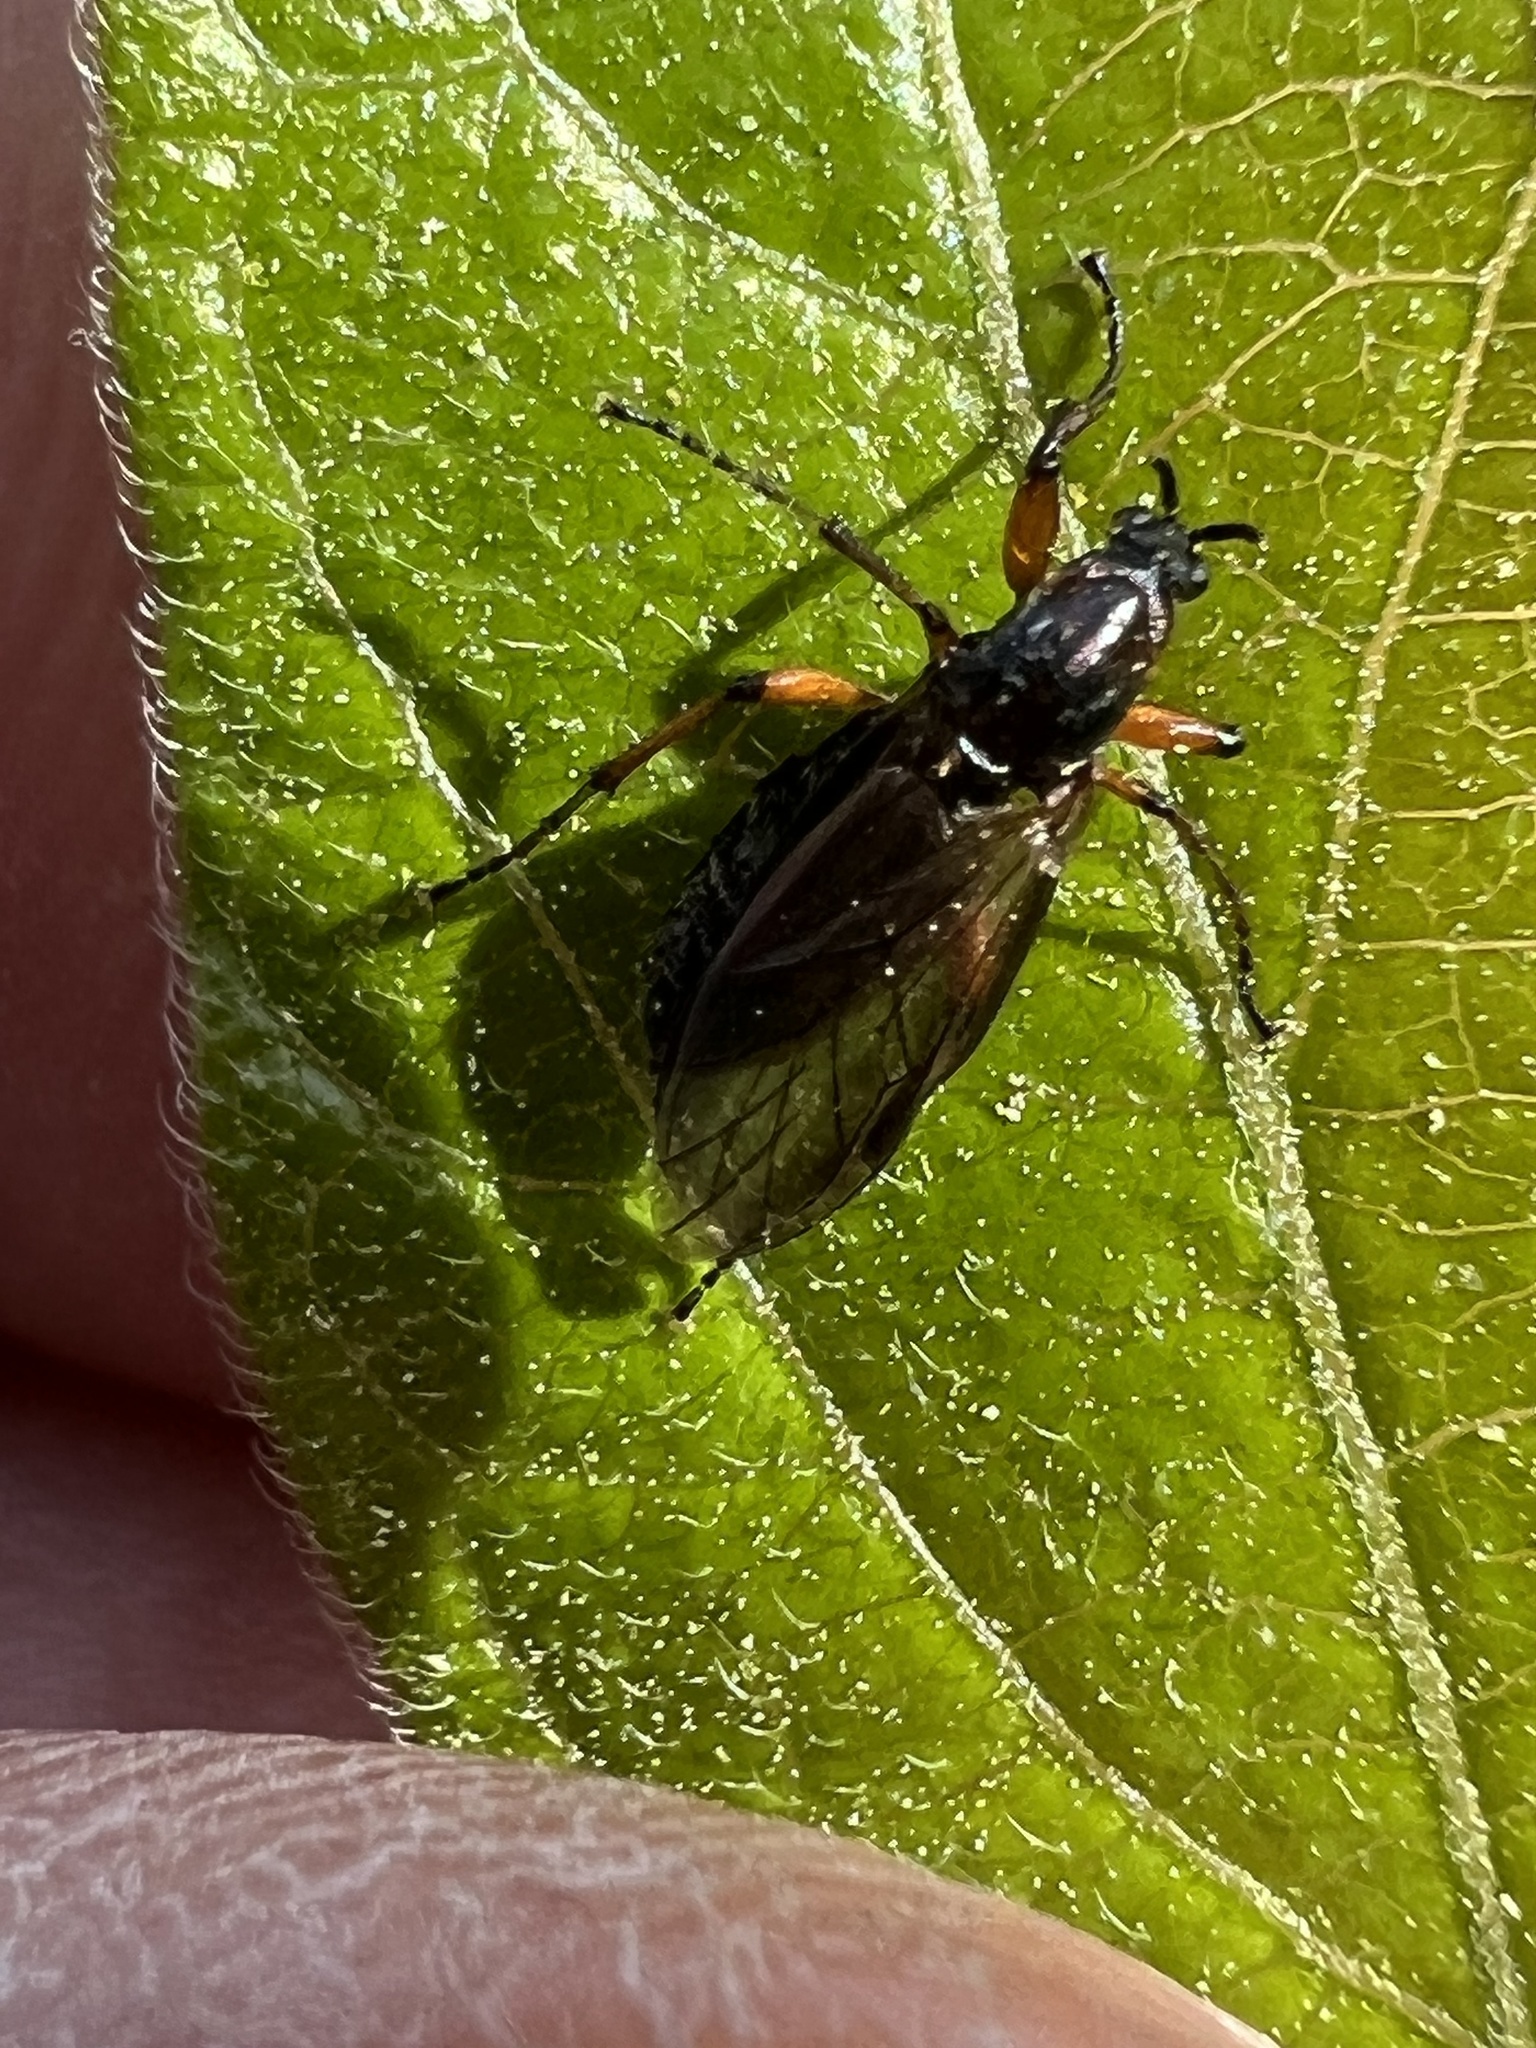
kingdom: Animalia
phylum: Arthropoda
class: Insecta
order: Diptera
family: Bibionidae
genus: Bibio
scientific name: Bibio
